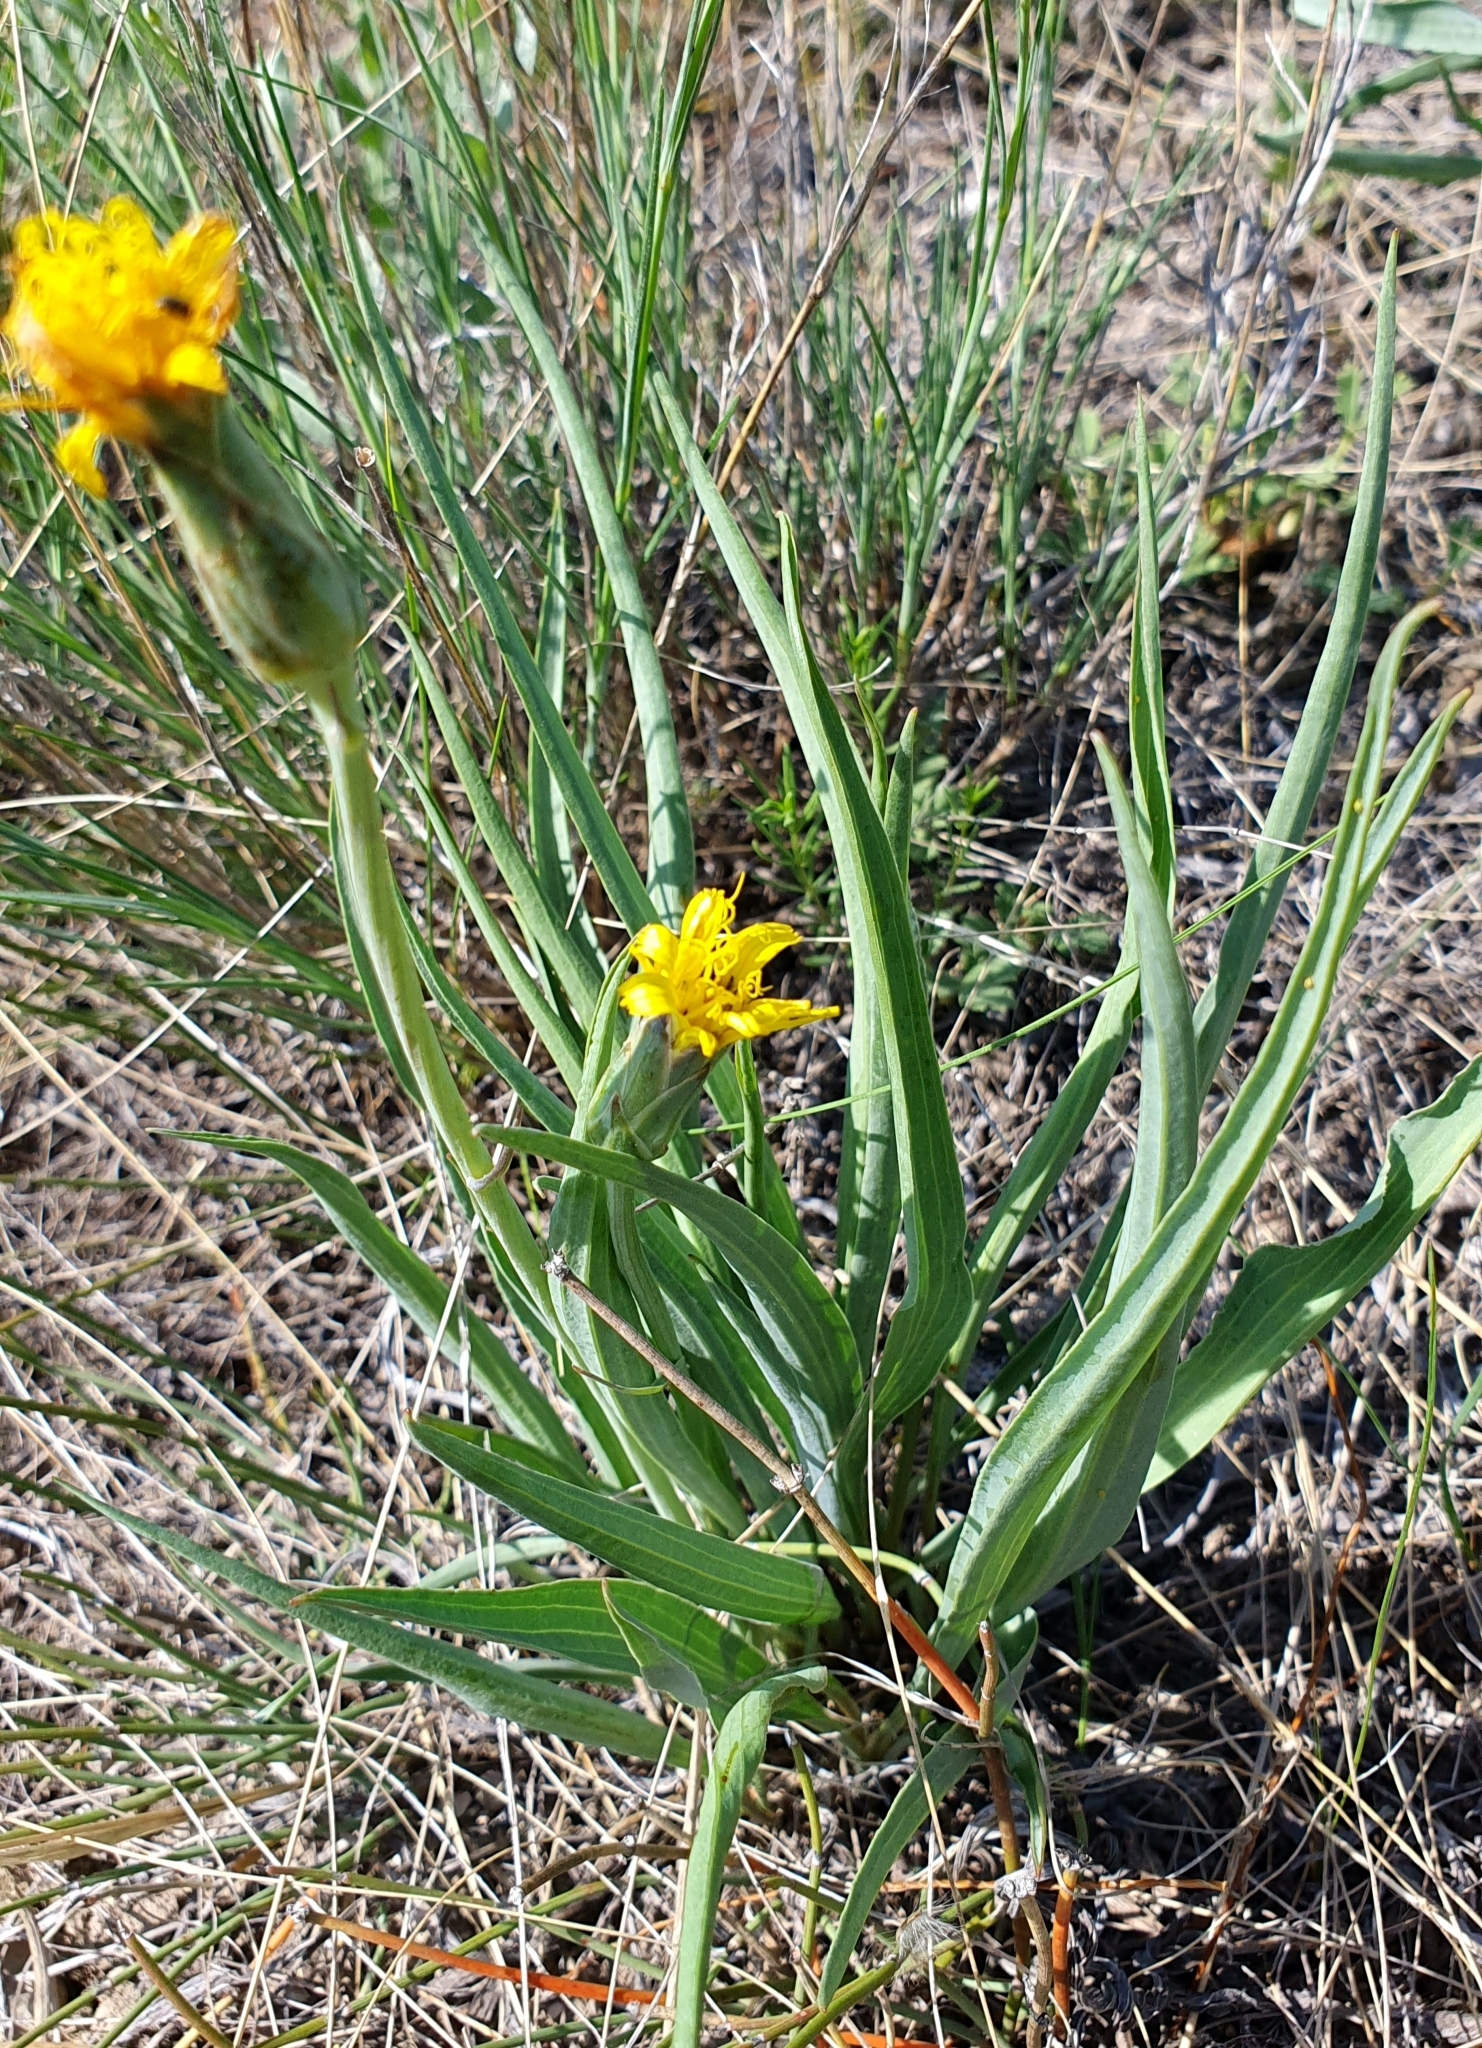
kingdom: Plantae
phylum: Tracheophyta
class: Magnoliopsida
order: Asterales
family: Asteraceae
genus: Takhtajaniantha
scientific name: Takhtajaniantha austriaca
